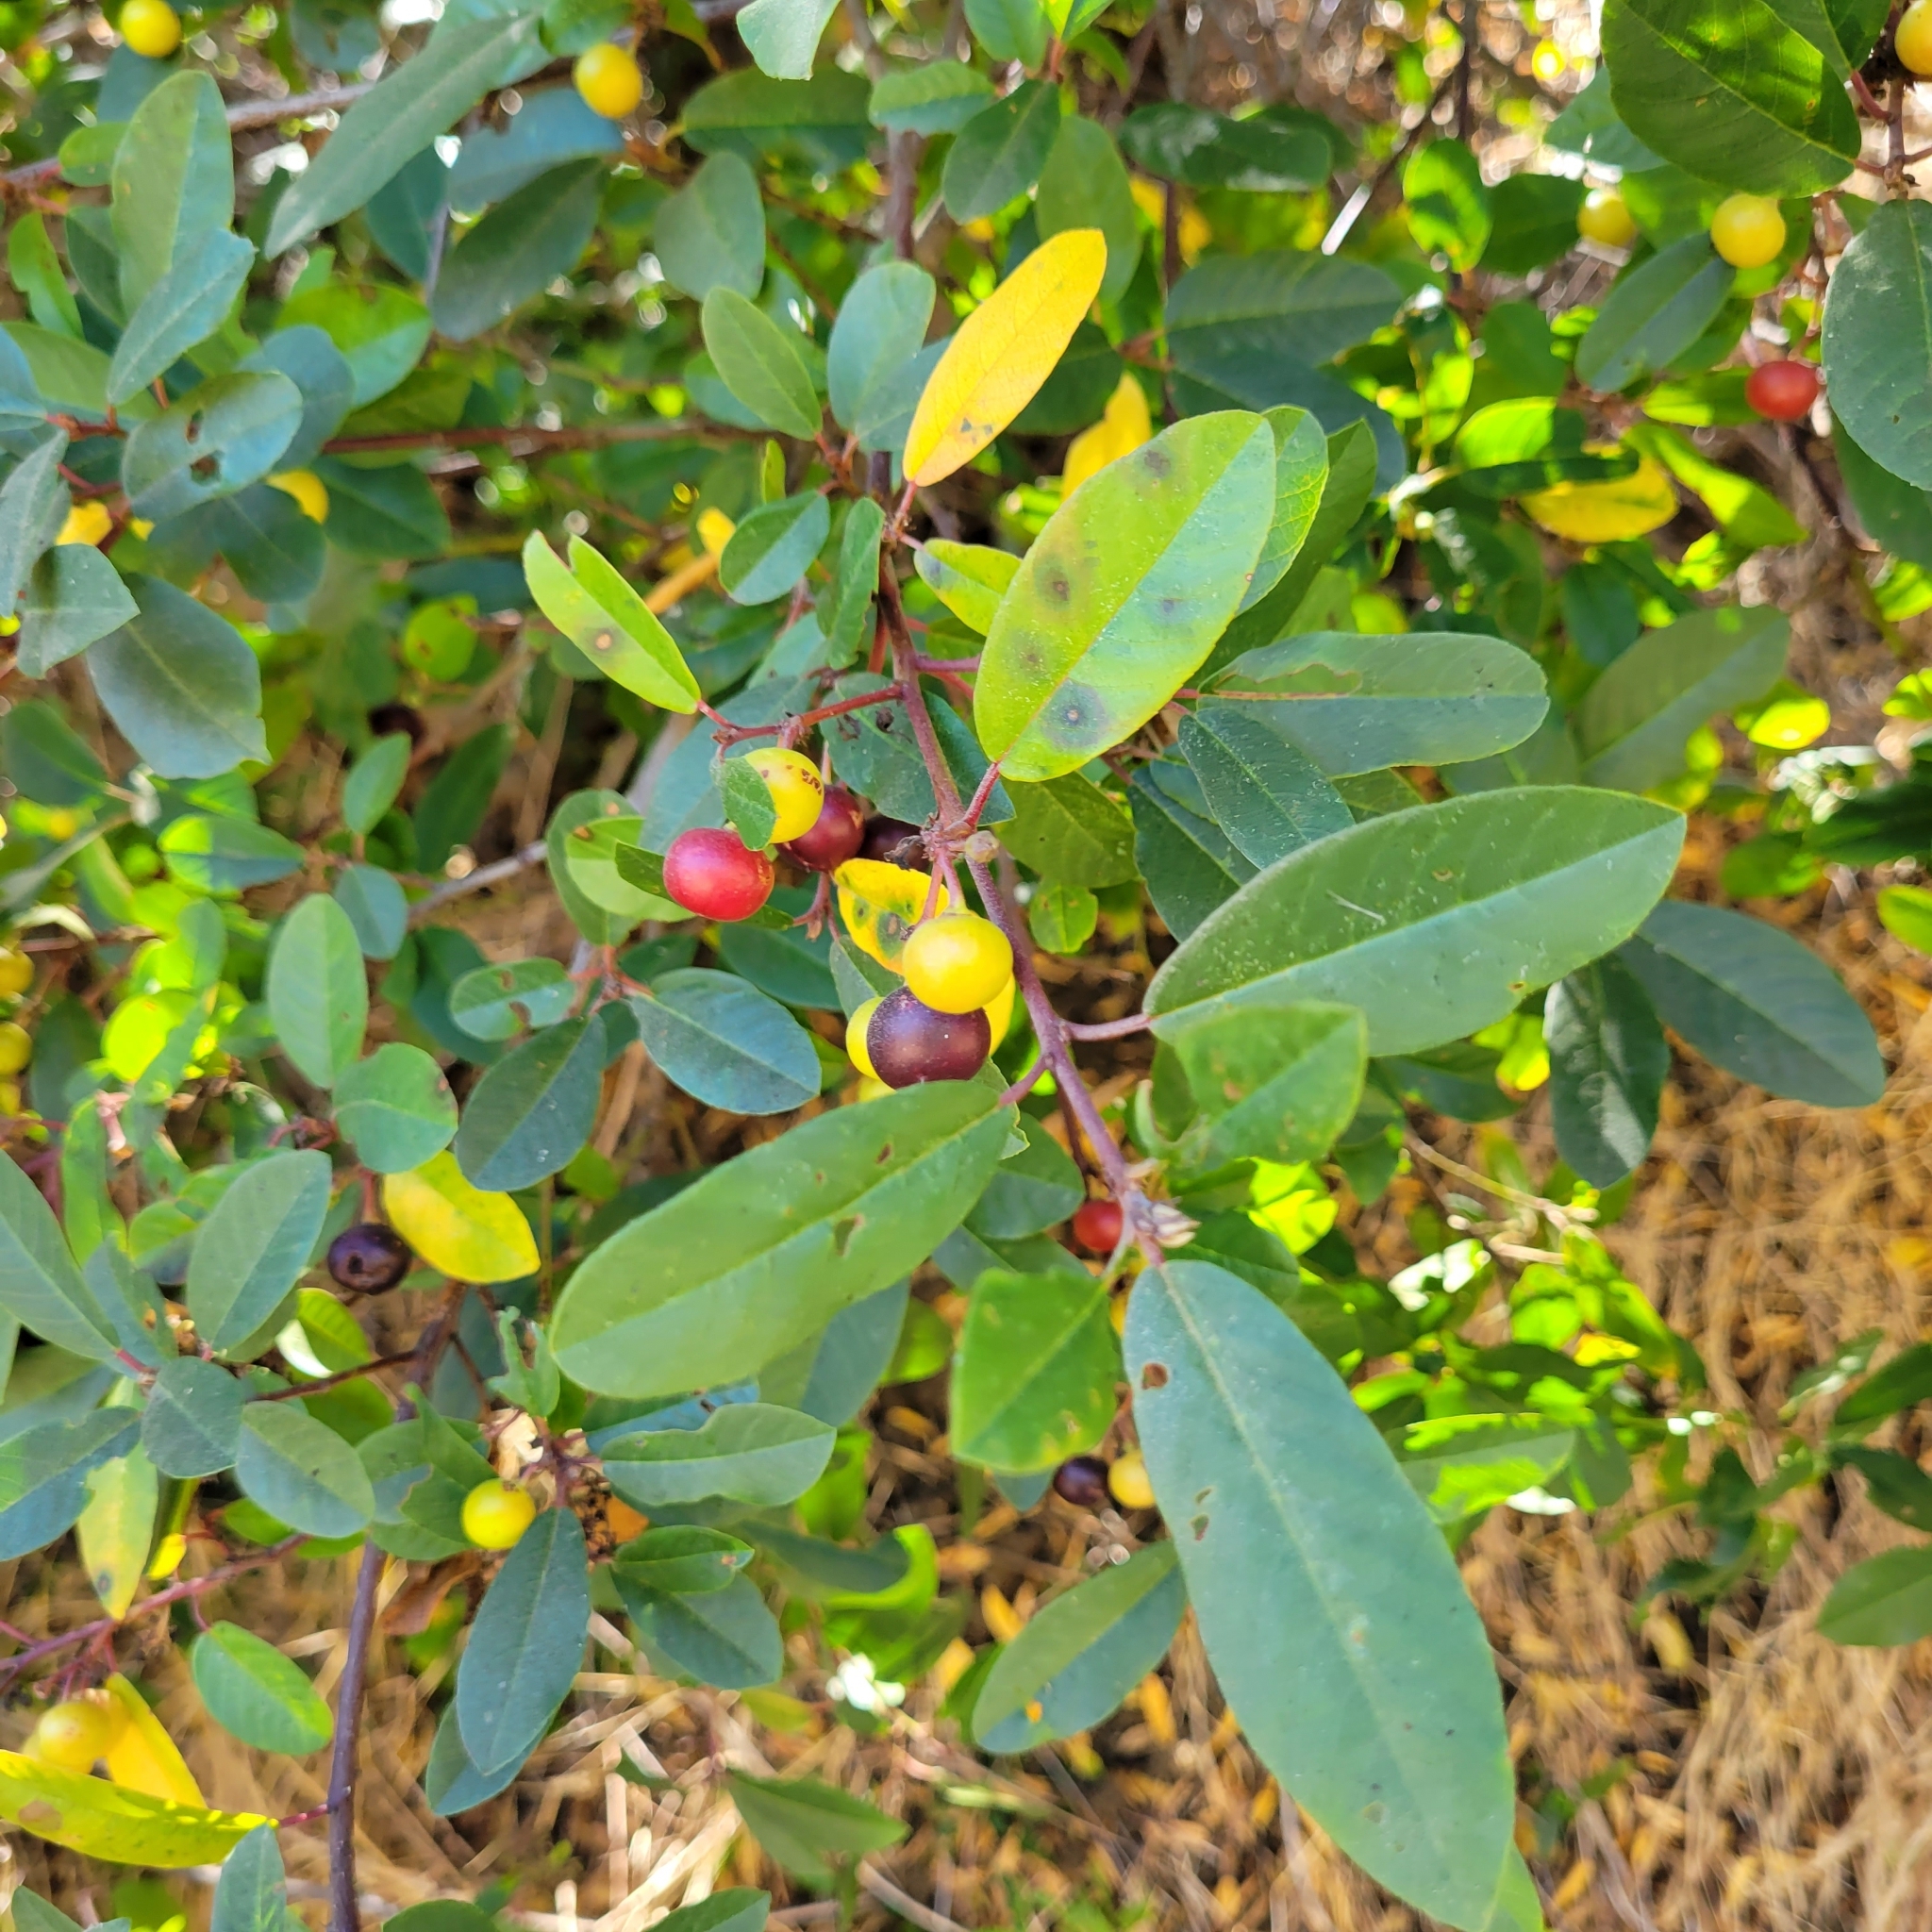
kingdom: Plantae
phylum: Tracheophyta
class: Magnoliopsida
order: Rosales
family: Rhamnaceae
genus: Frangula
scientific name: Frangula californica
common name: California buckthorn
